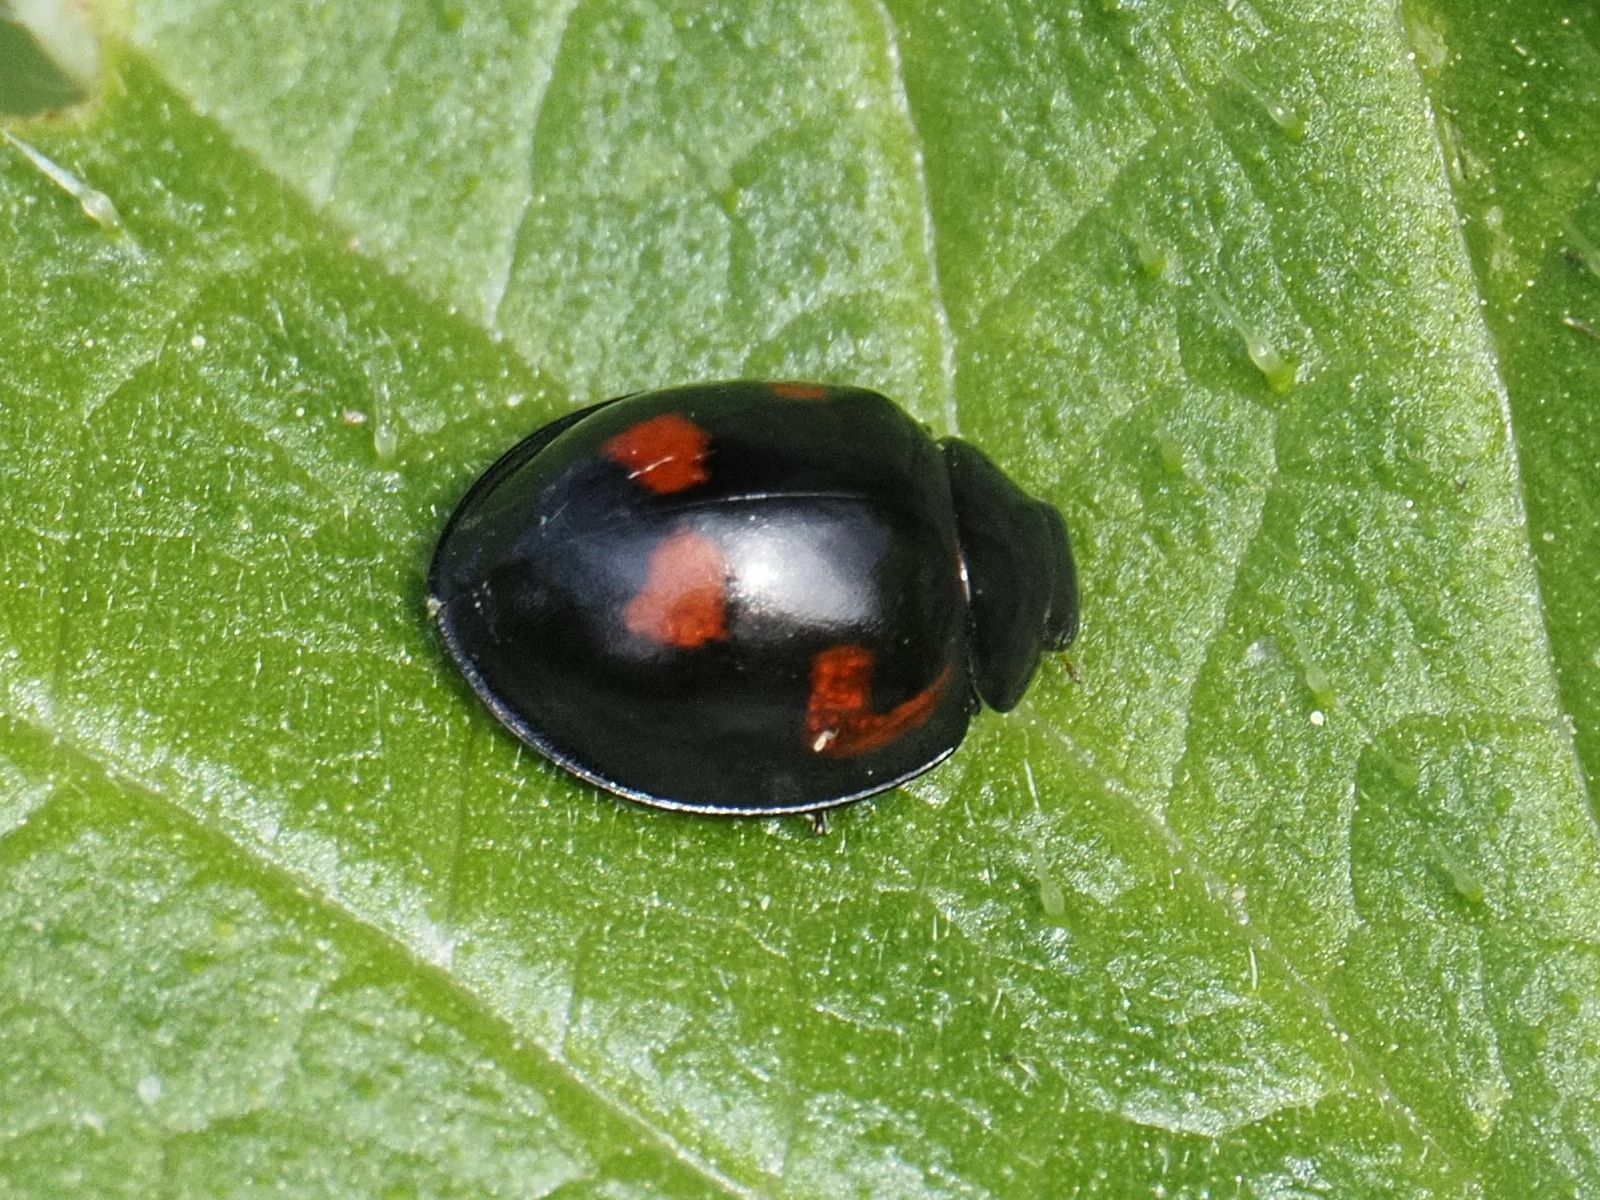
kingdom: Animalia
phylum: Arthropoda
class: Insecta
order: Coleoptera
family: Coccinellidae
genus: Brumus
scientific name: Brumus quadripustulatus
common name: Ladybird beetle
